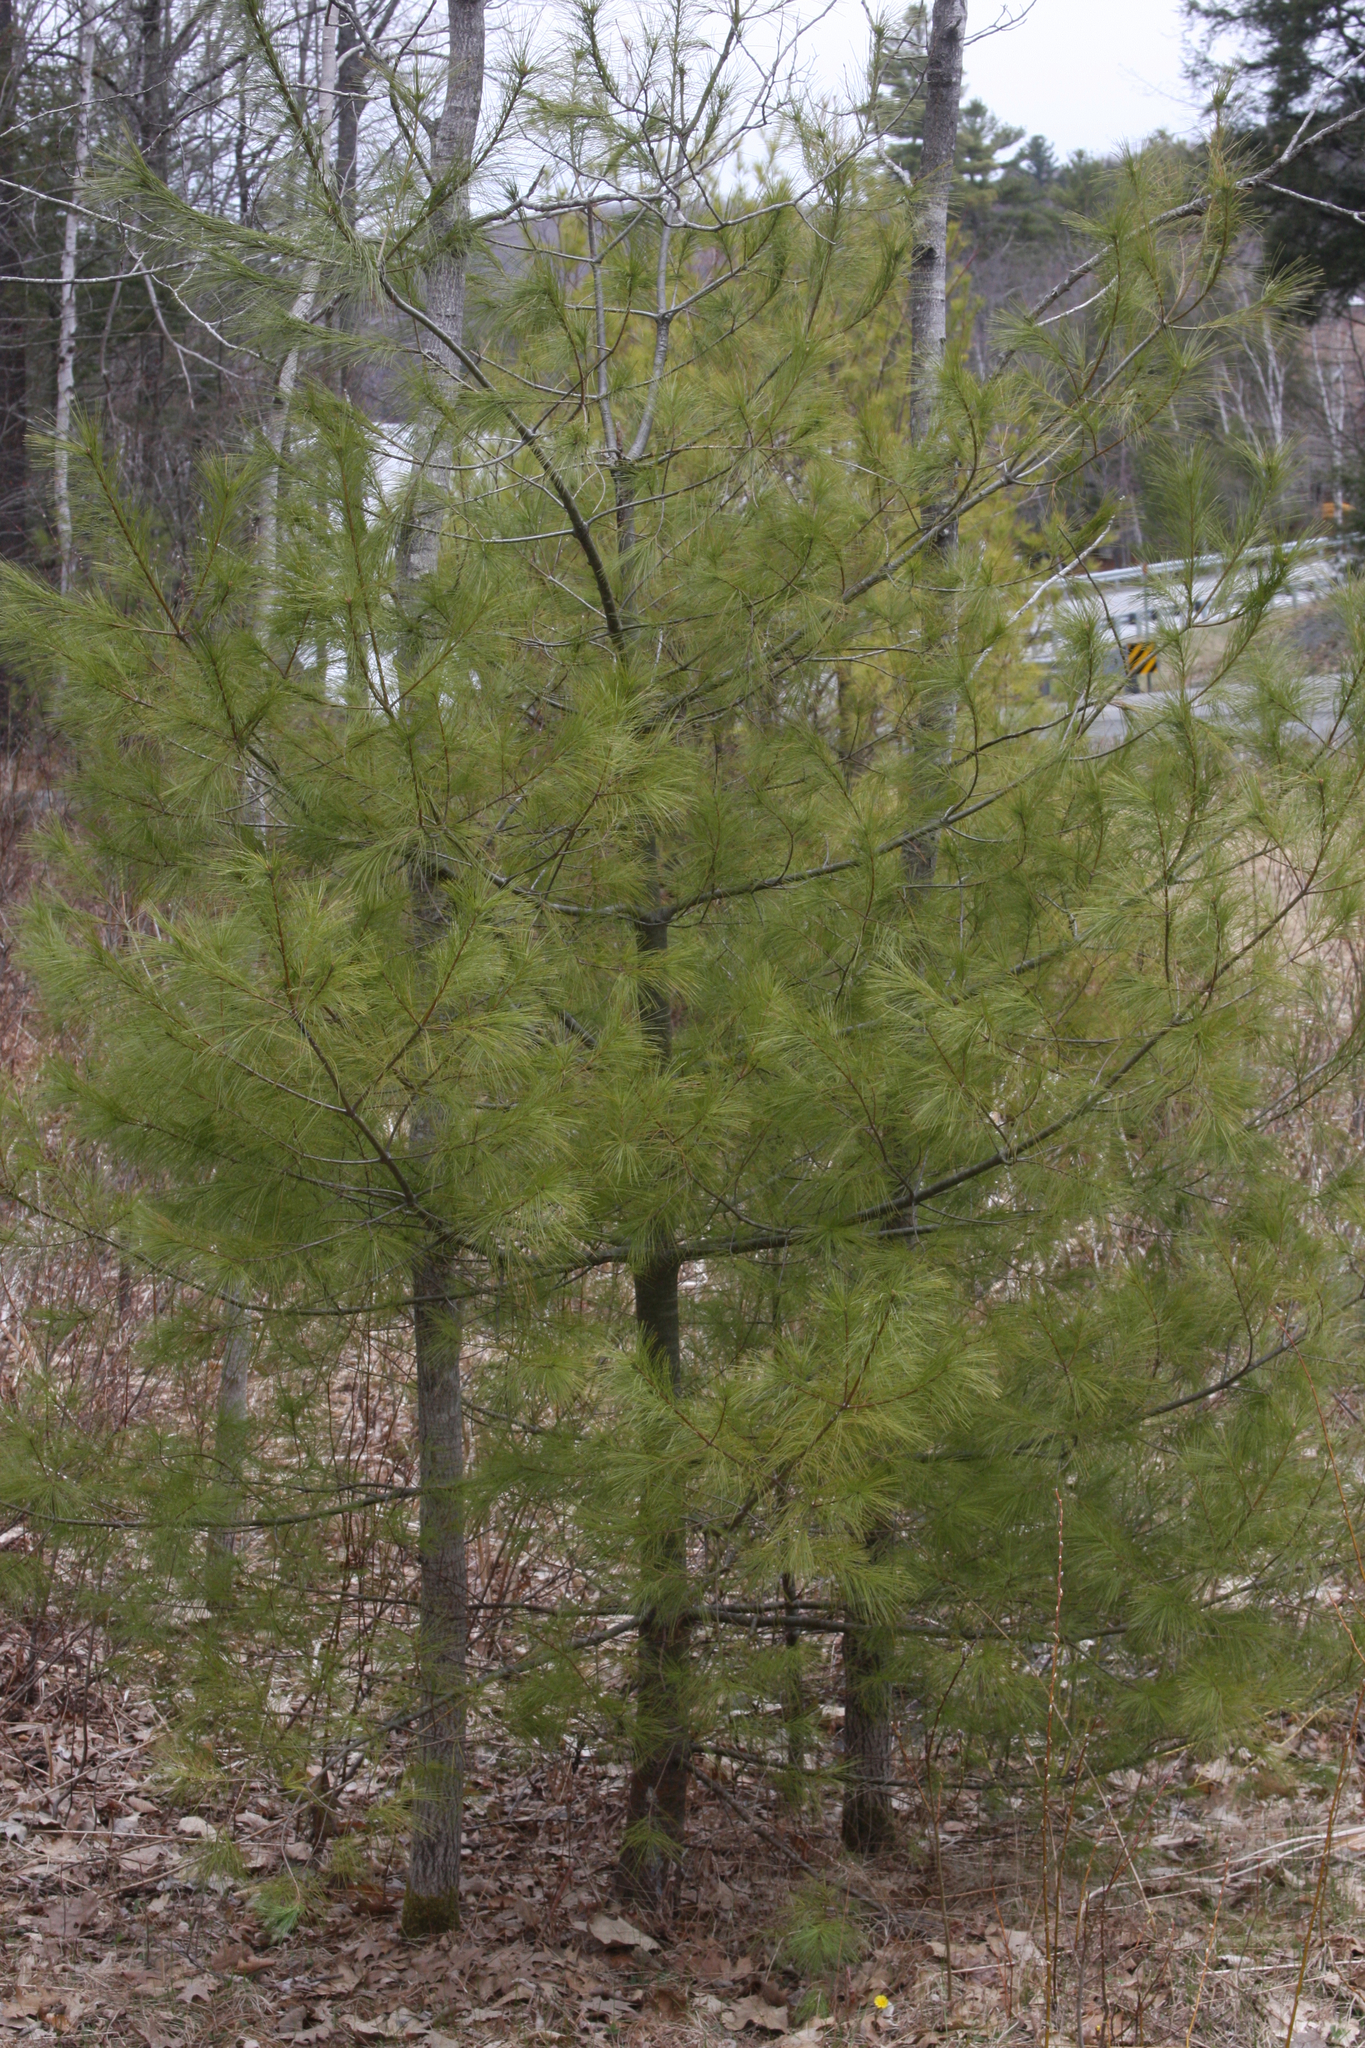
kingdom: Plantae
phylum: Tracheophyta
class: Pinopsida
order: Pinales
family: Pinaceae
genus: Pinus
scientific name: Pinus strobus
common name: Weymouth pine
